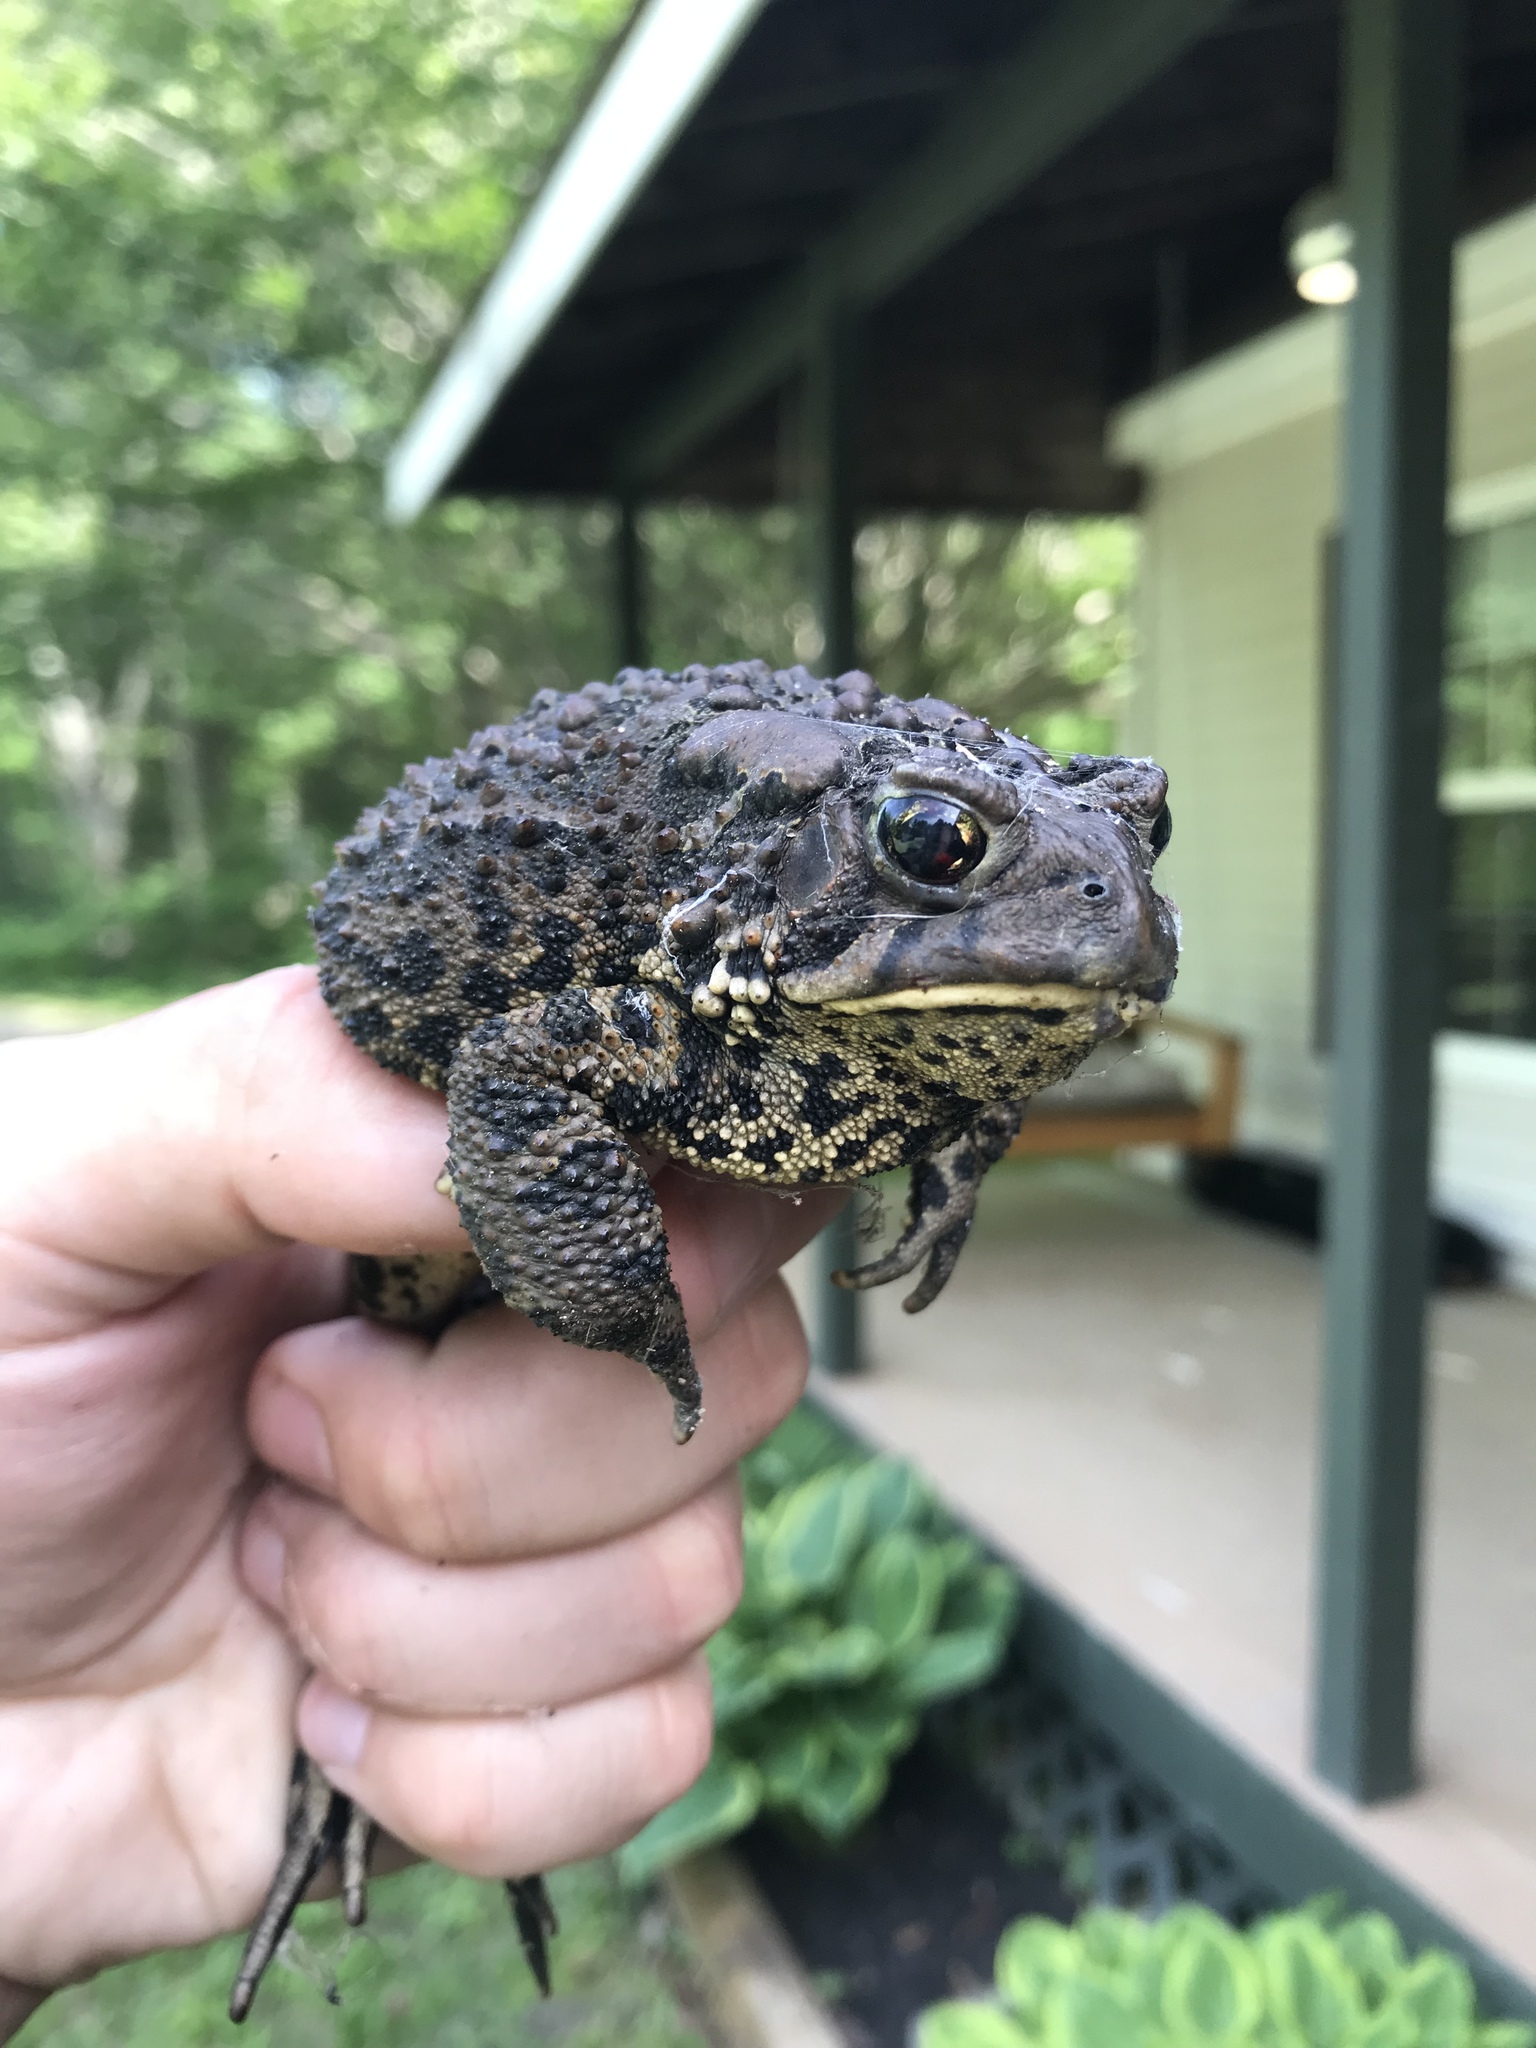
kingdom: Animalia
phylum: Chordata
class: Amphibia
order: Anura
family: Bufonidae
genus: Anaxyrus
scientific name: Anaxyrus americanus
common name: American toad
